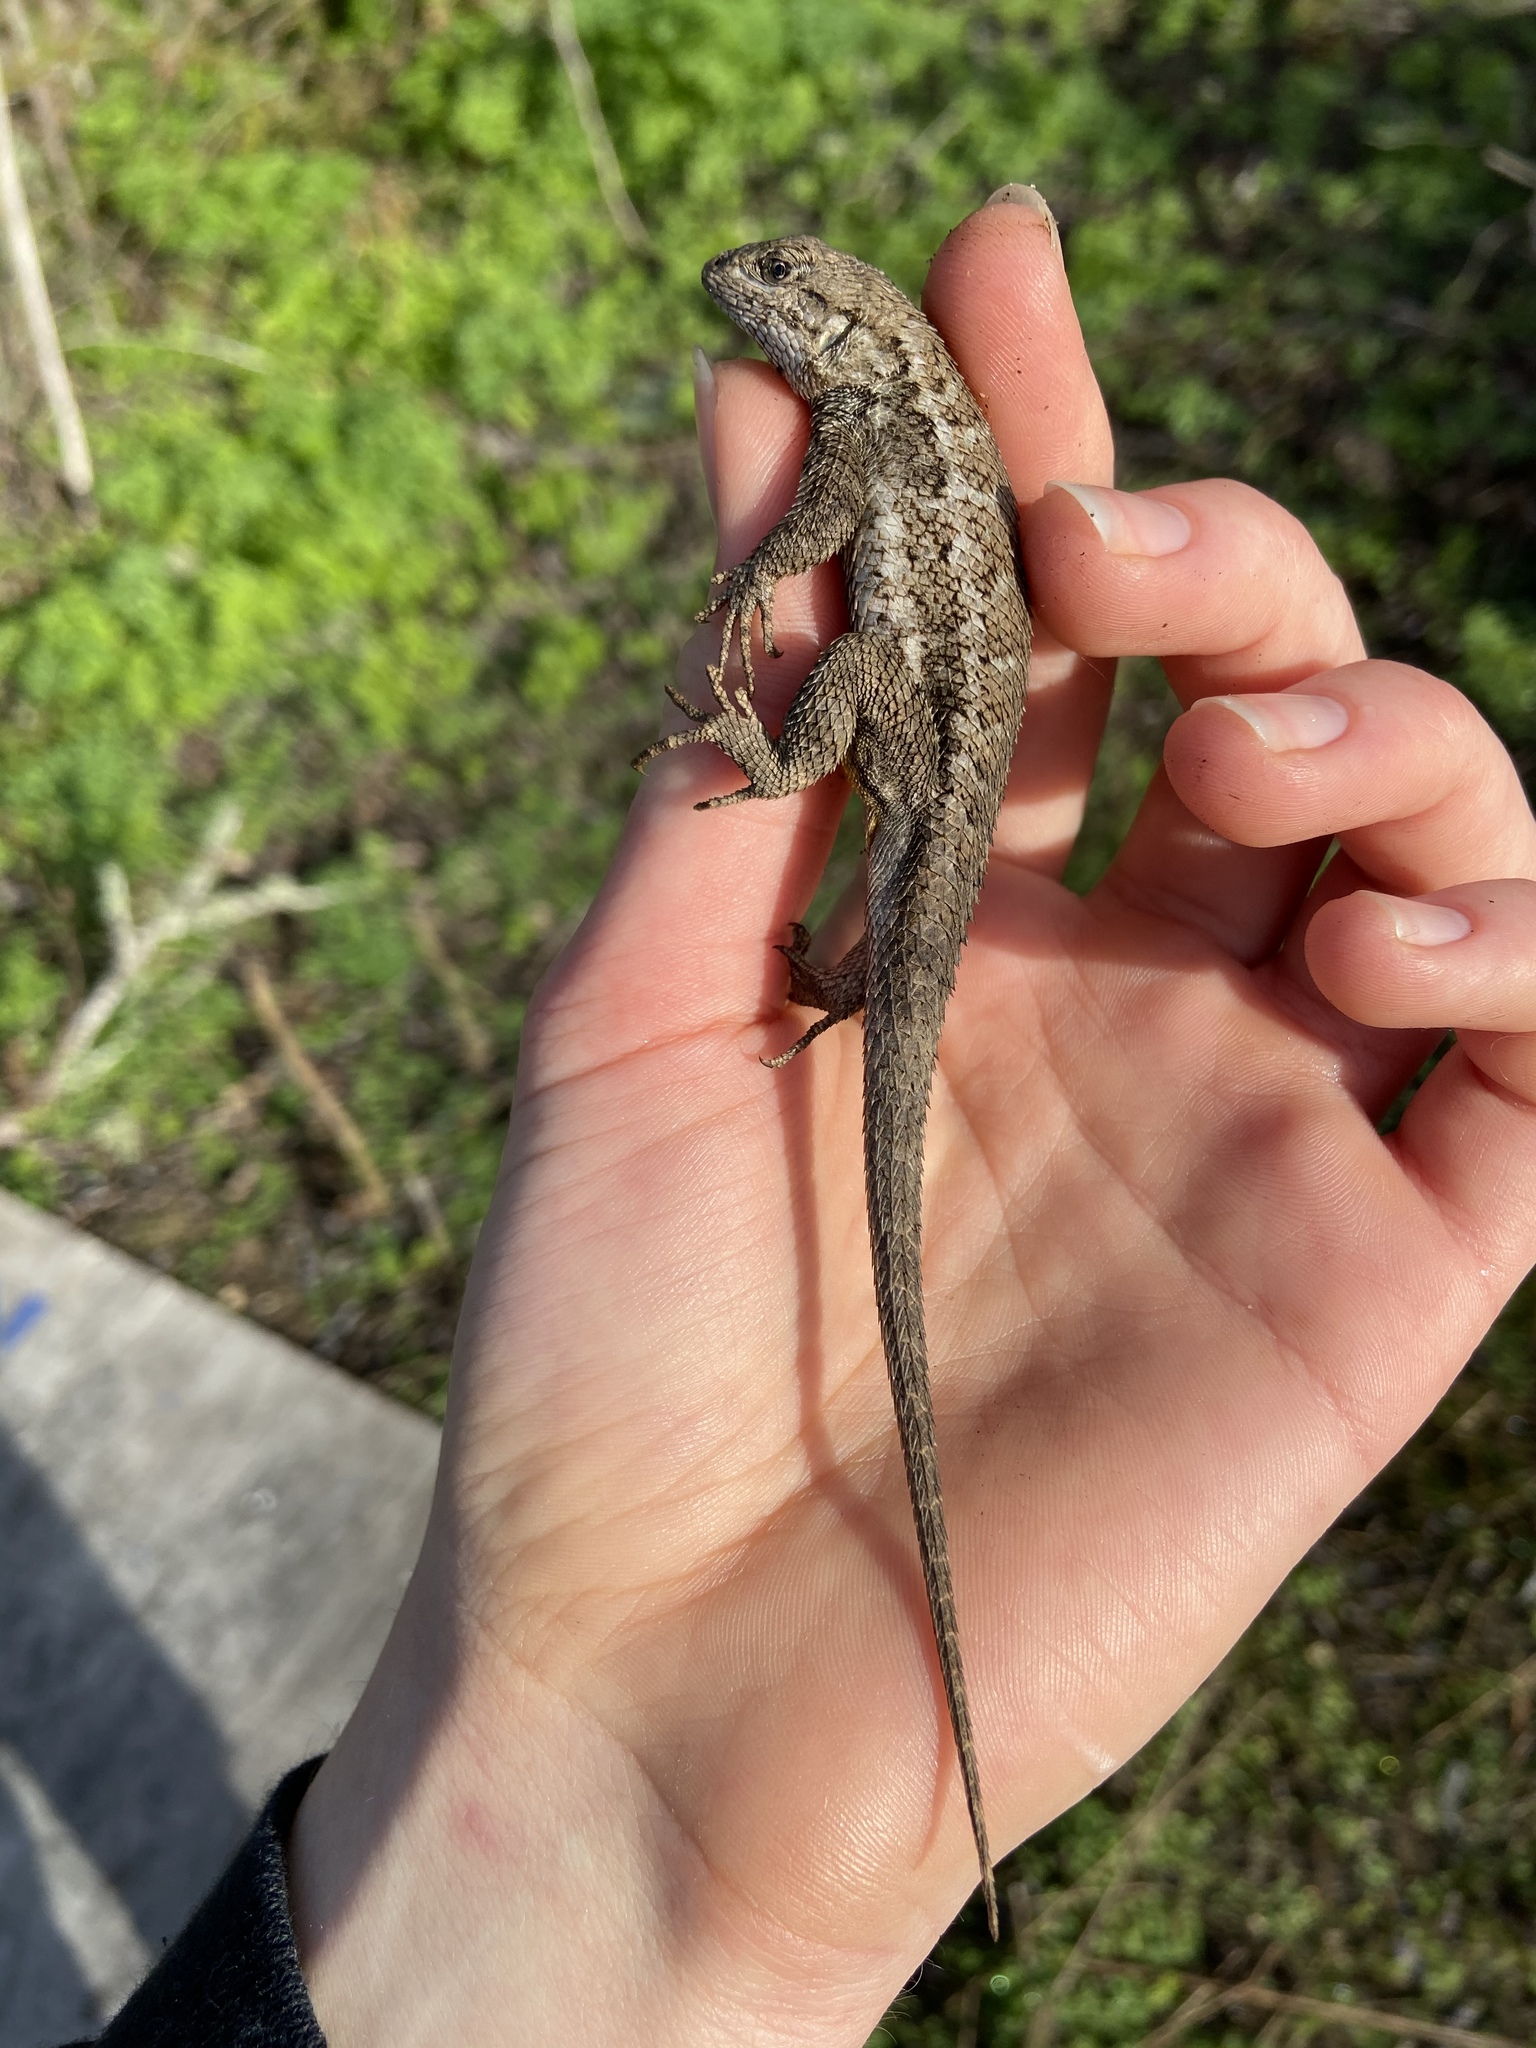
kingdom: Animalia
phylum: Chordata
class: Squamata
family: Phrynosomatidae
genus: Sceloporus
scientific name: Sceloporus occidentalis
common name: Western fence lizard
